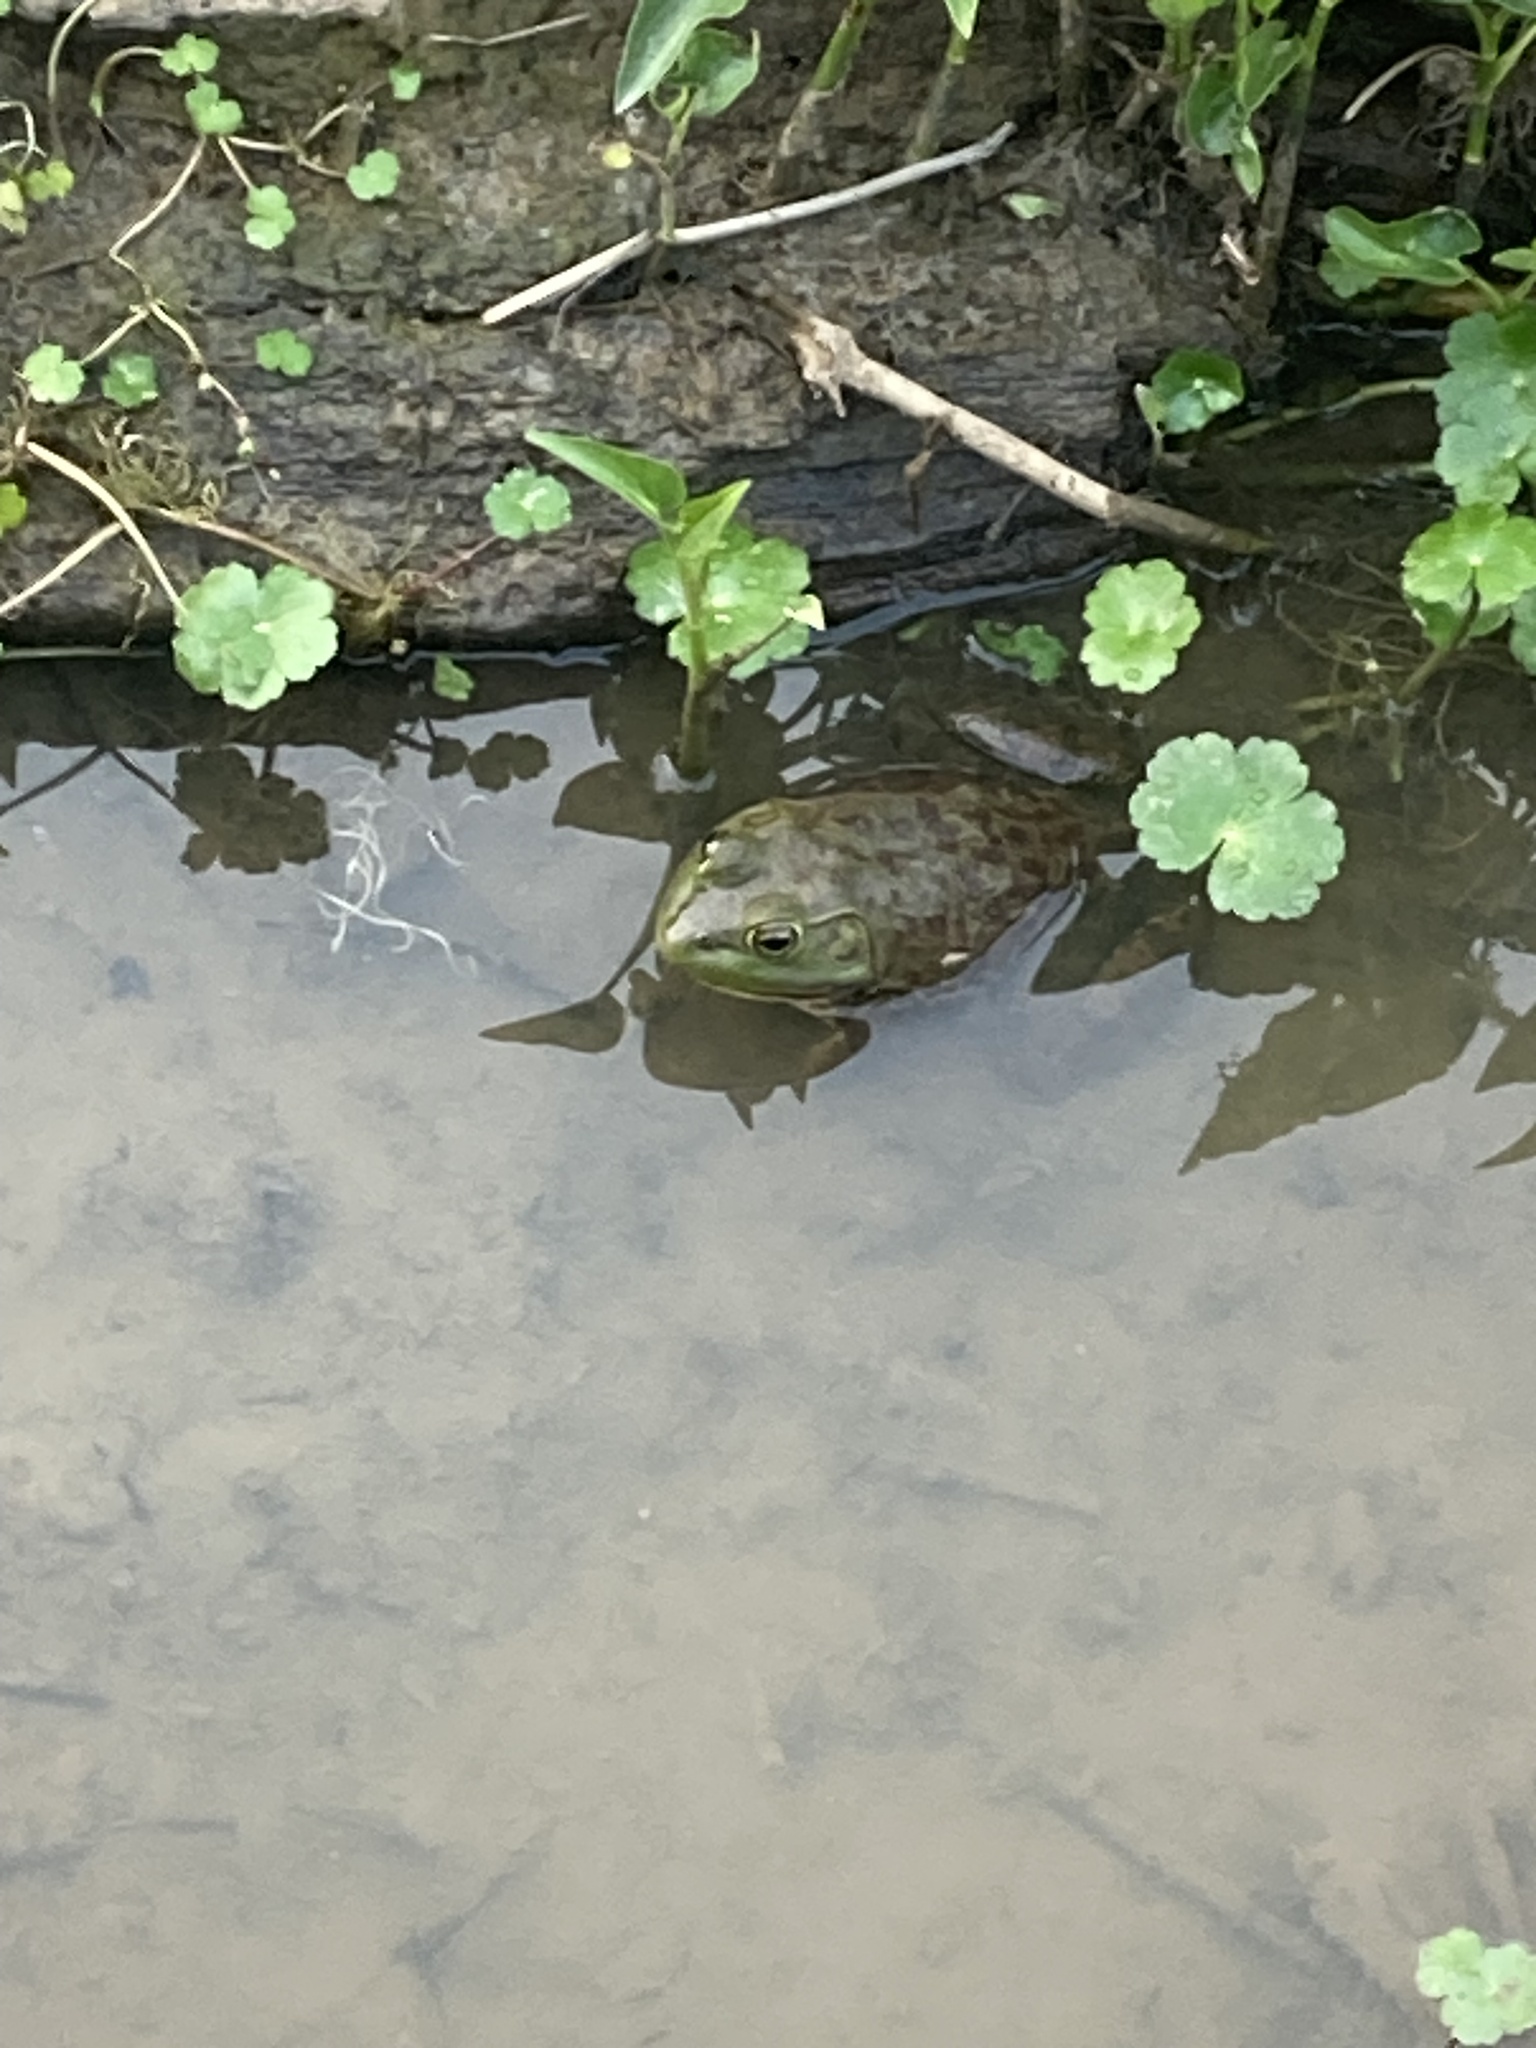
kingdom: Animalia
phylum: Chordata
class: Amphibia
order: Anura
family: Ranidae
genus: Lithobates
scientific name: Lithobates catesbeianus
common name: American bullfrog
